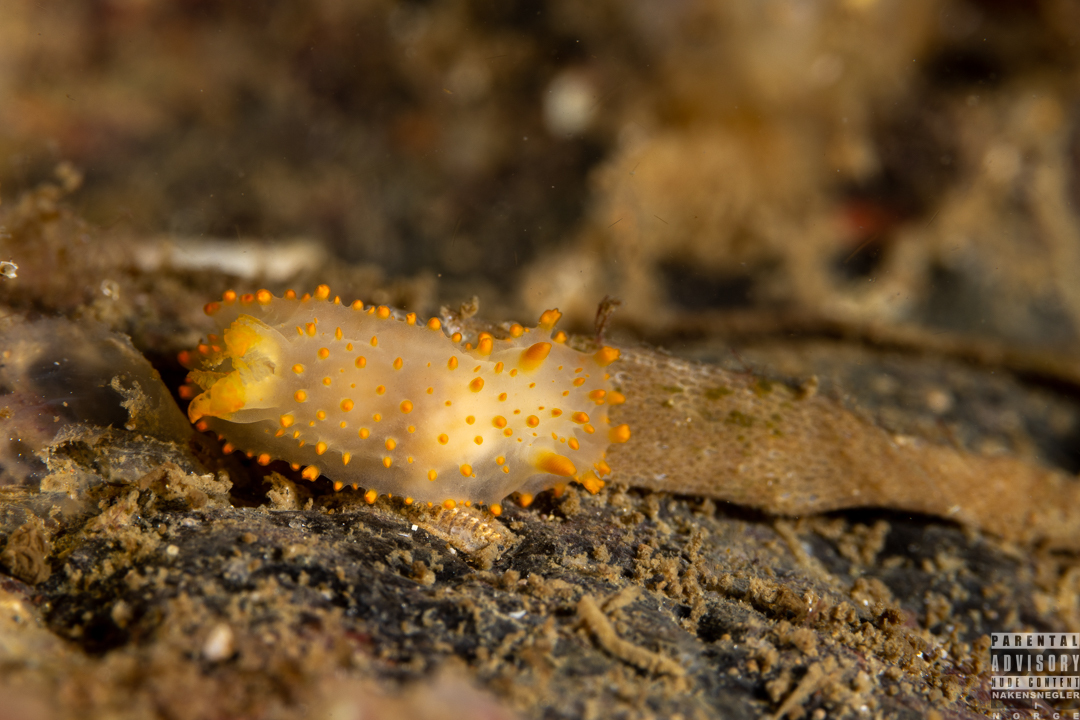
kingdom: Animalia
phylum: Mollusca
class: Gastropoda
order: Nudibranchia
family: Polyceridae
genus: Crimora
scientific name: Crimora papillata
